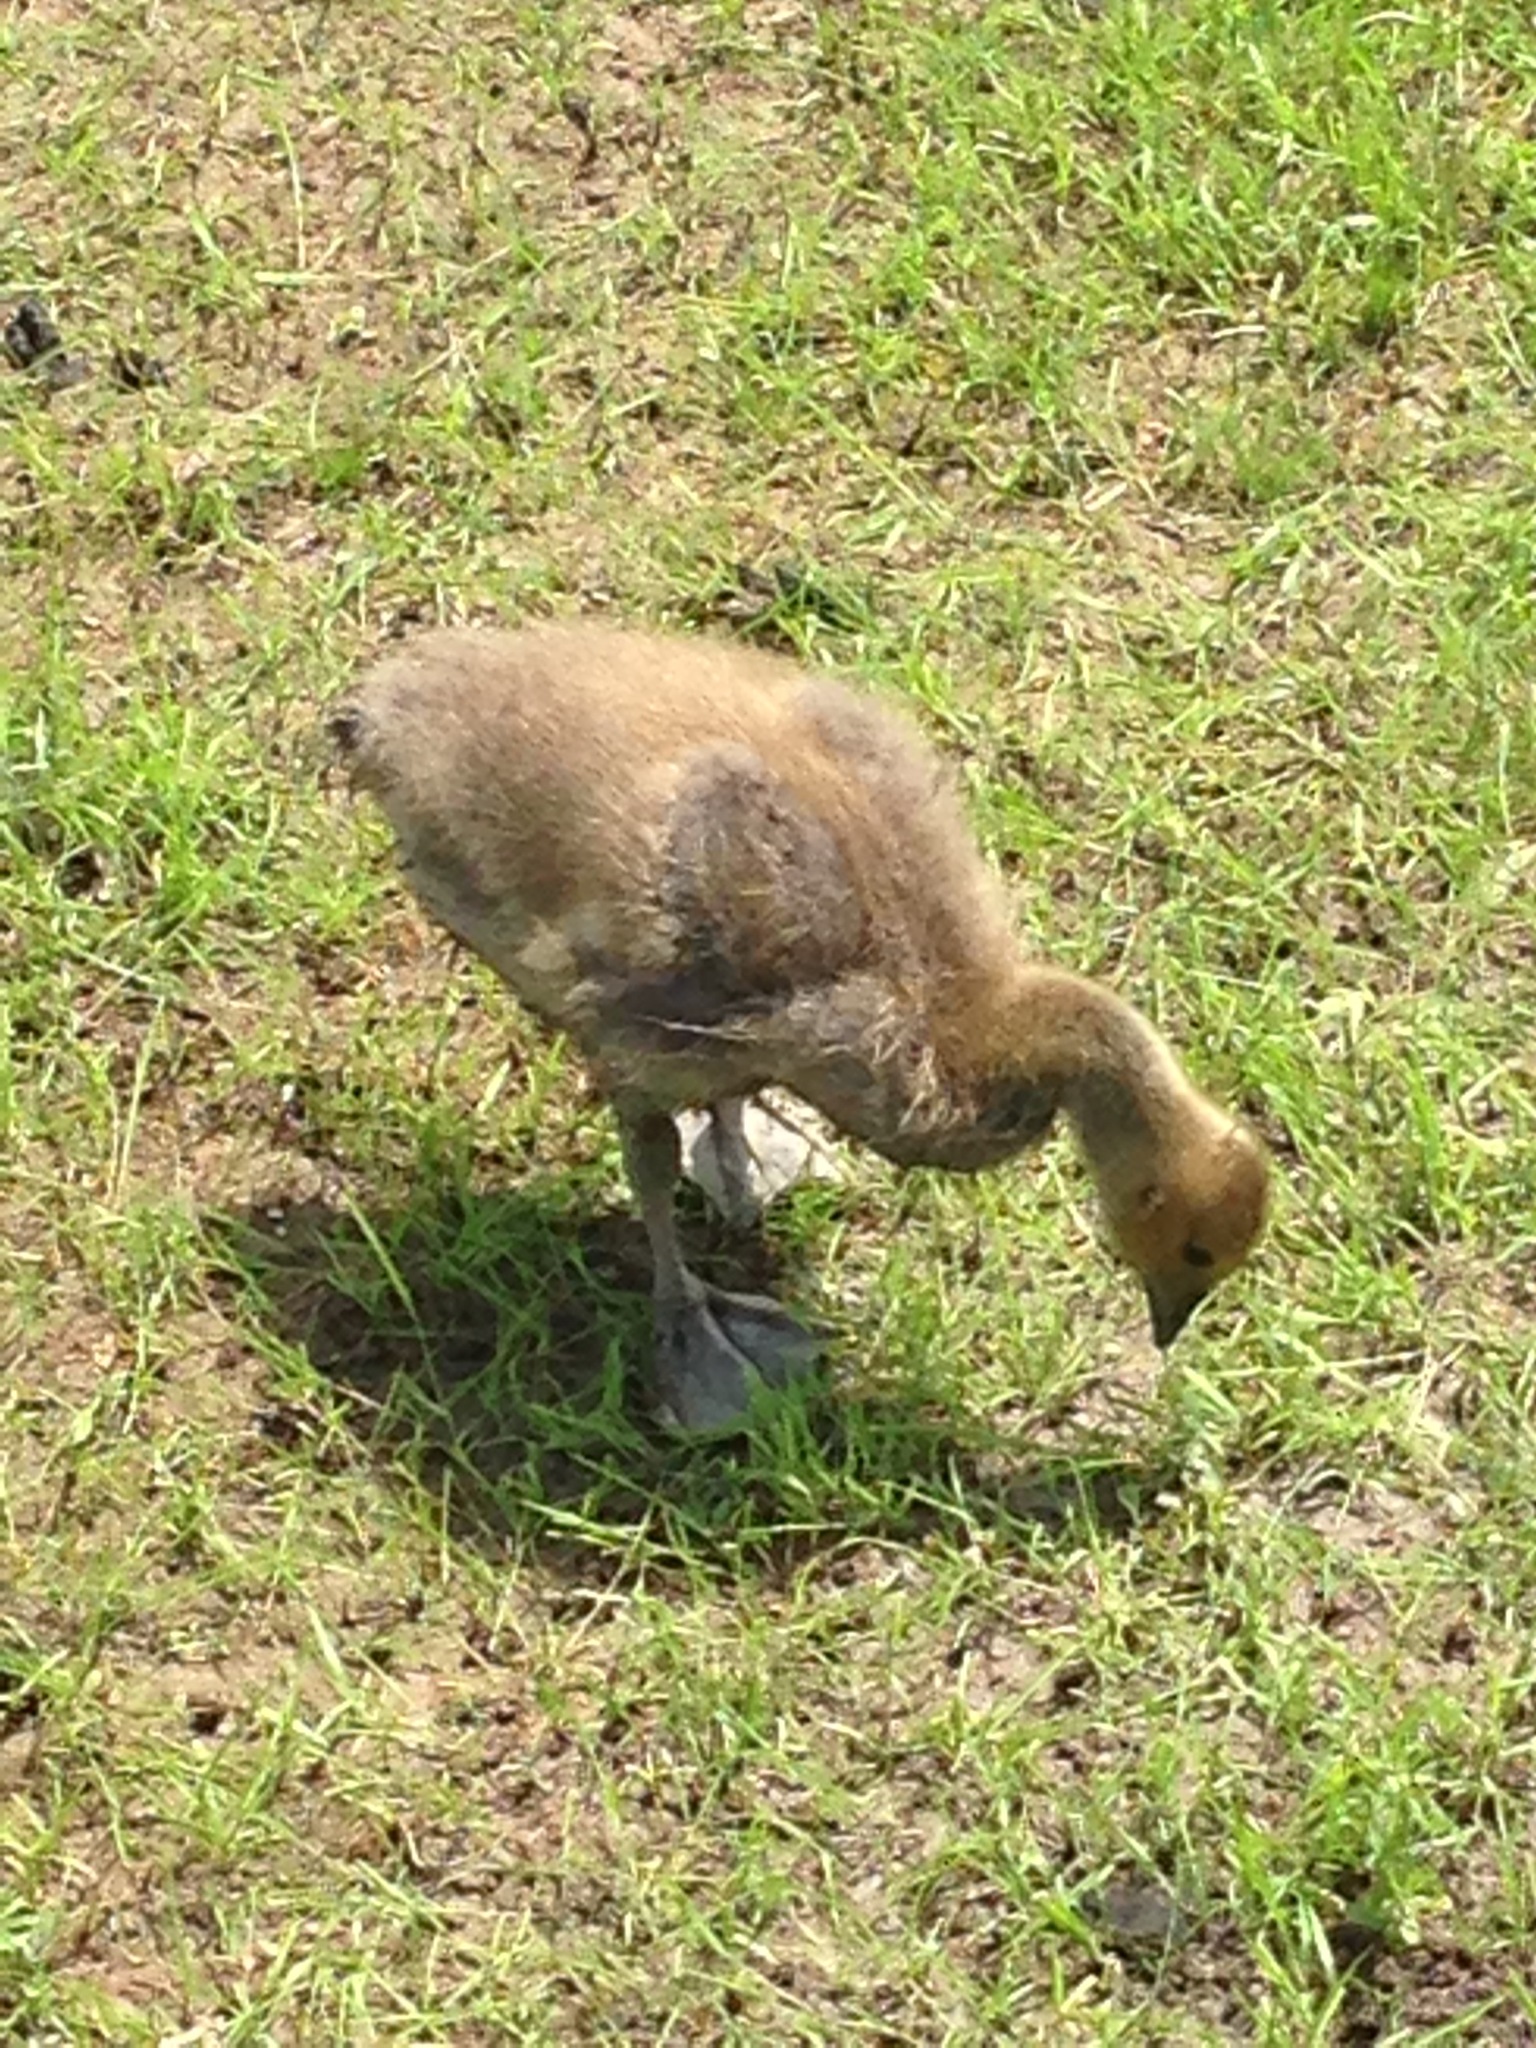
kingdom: Animalia
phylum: Chordata
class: Aves
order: Anseriformes
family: Anatidae
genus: Branta
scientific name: Branta canadensis
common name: Canada goose
